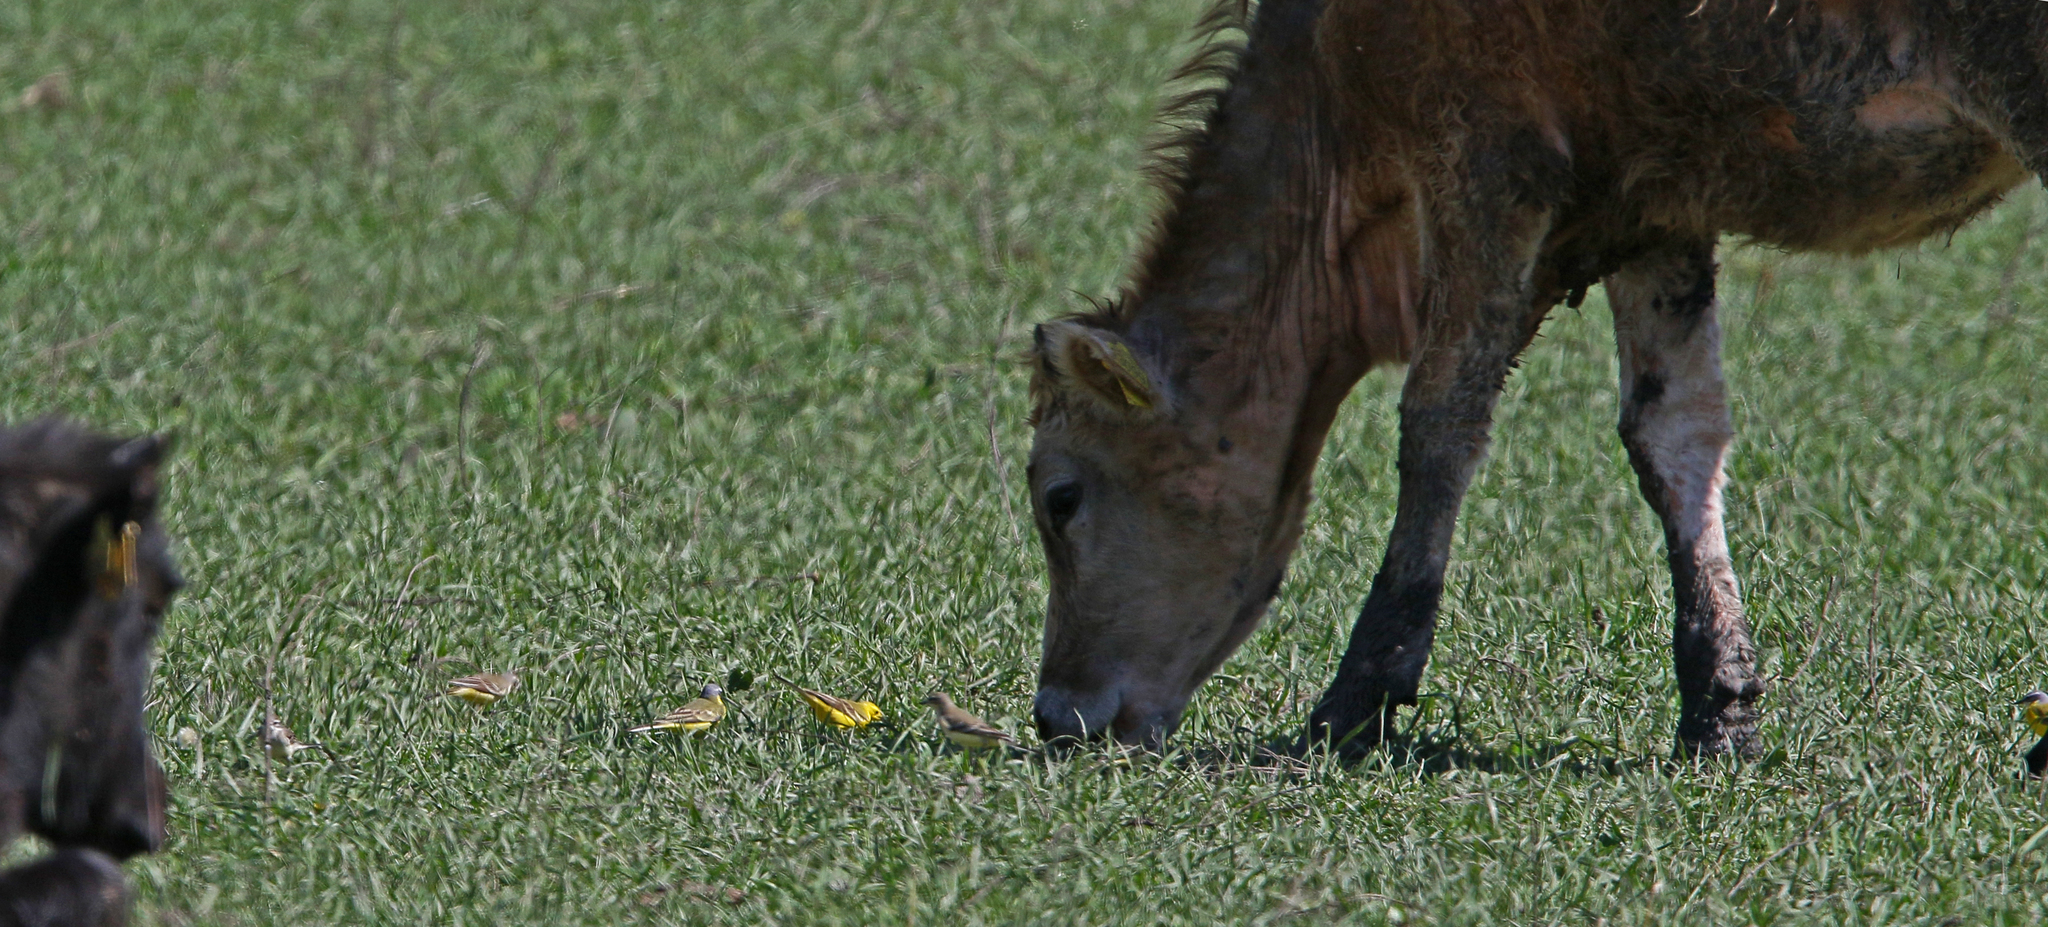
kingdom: Animalia
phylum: Chordata
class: Aves
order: Passeriformes
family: Motacillidae
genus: Motacilla
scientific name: Motacilla flava
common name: Western yellow wagtail
